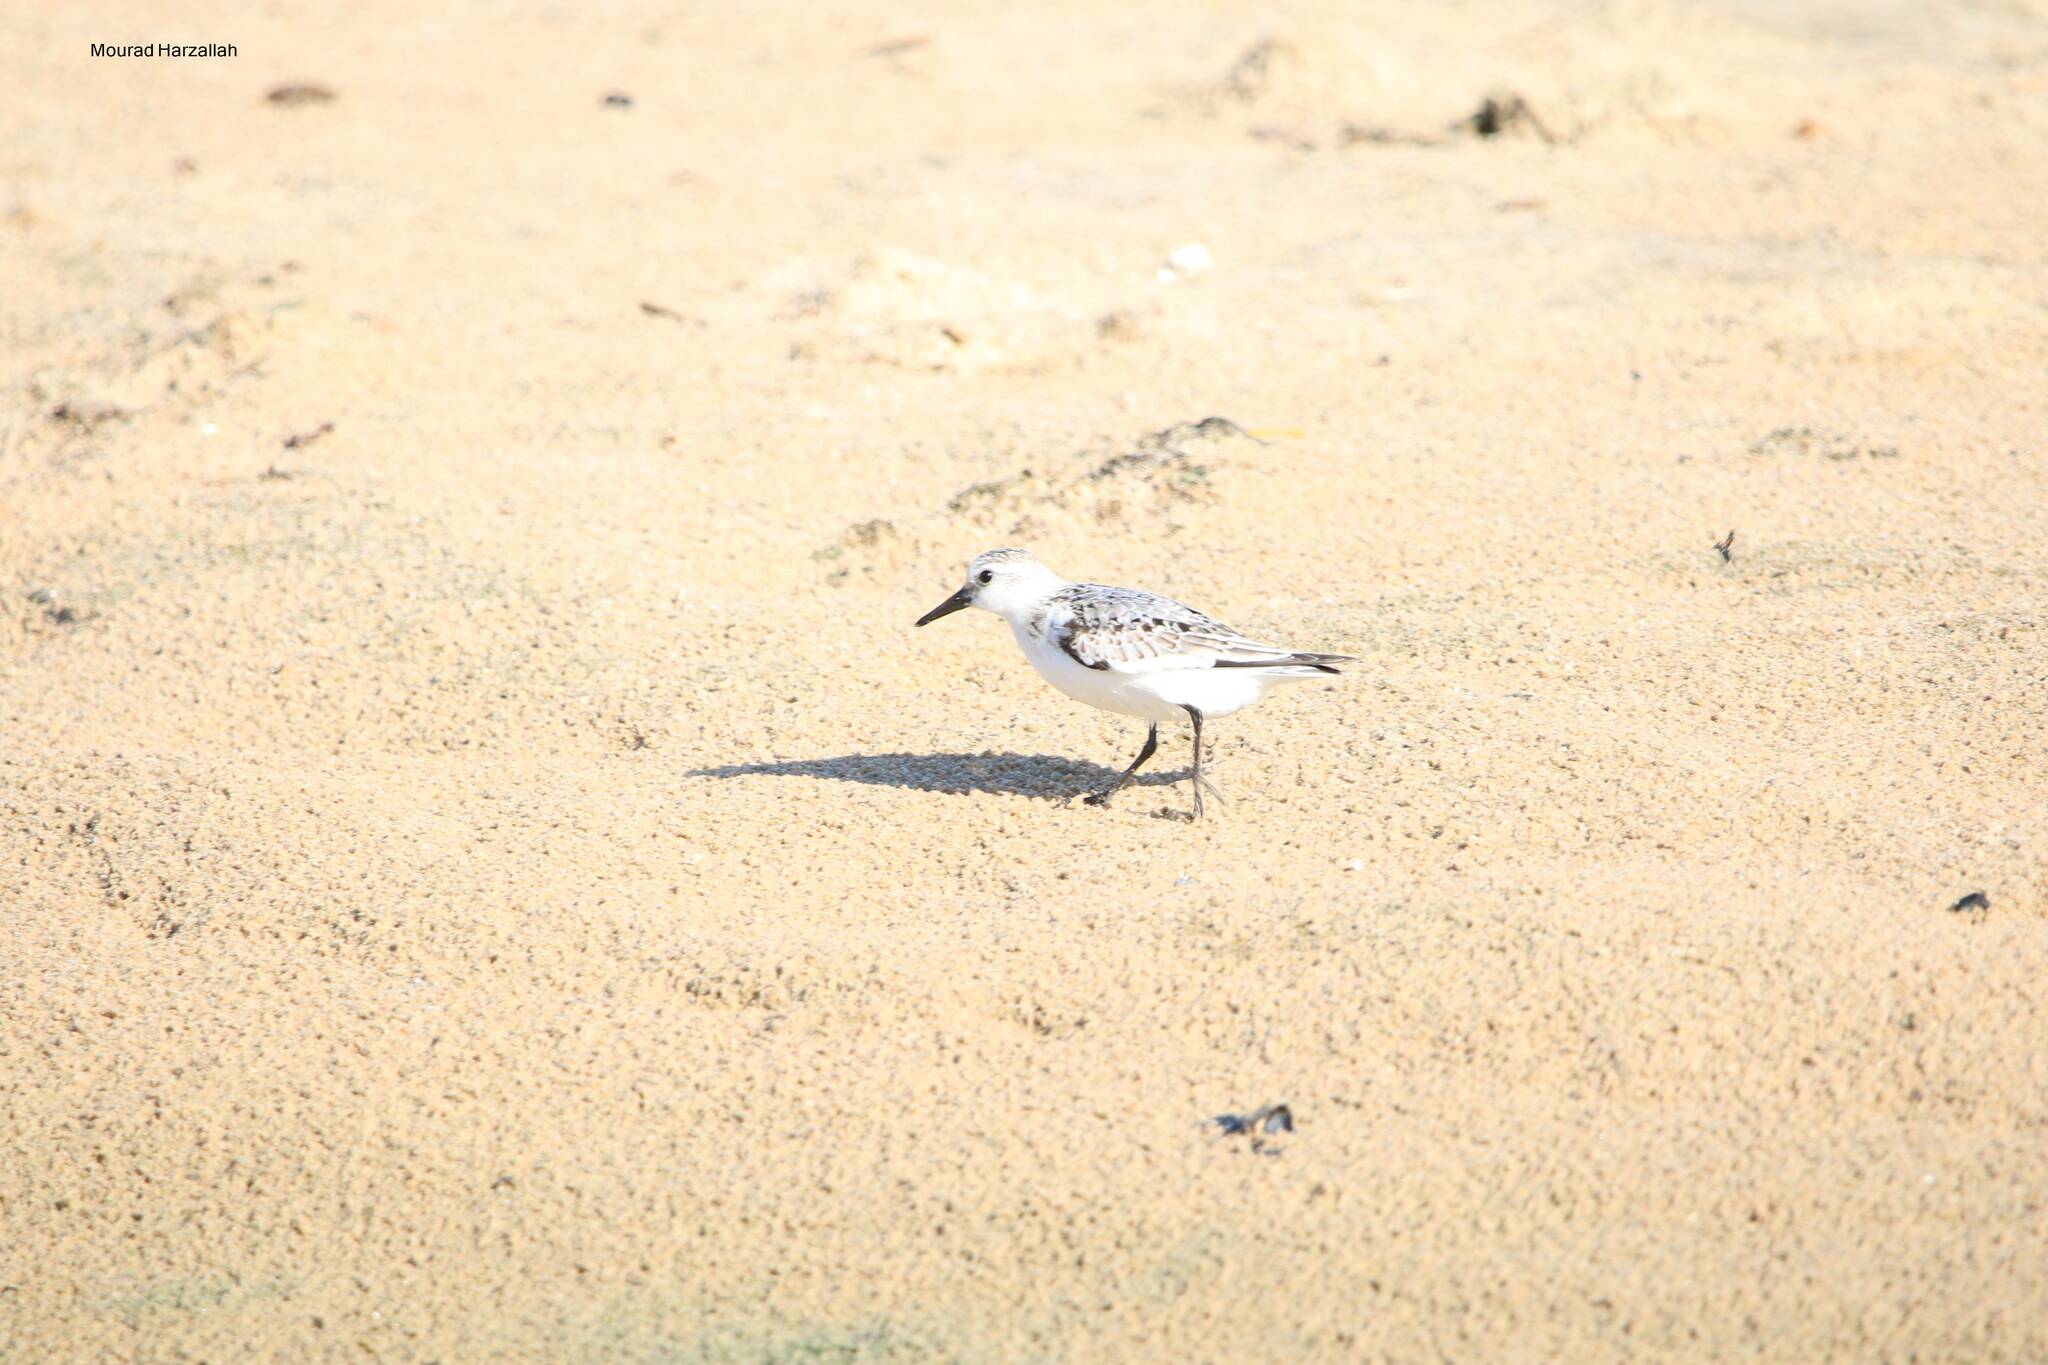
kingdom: Animalia
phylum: Chordata
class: Aves
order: Charadriiformes
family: Scolopacidae
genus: Calidris
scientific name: Calidris alba
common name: Sanderling
